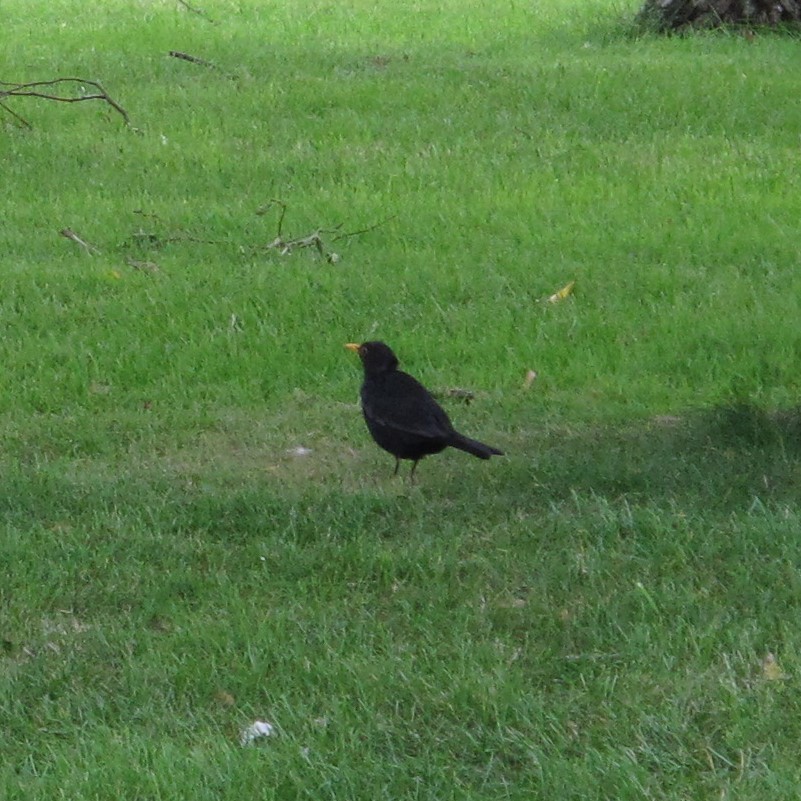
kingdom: Animalia
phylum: Chordata
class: Aves
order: Passeriformes
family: Turdidae
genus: Turdus
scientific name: Turdus merula
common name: Common blackbird
